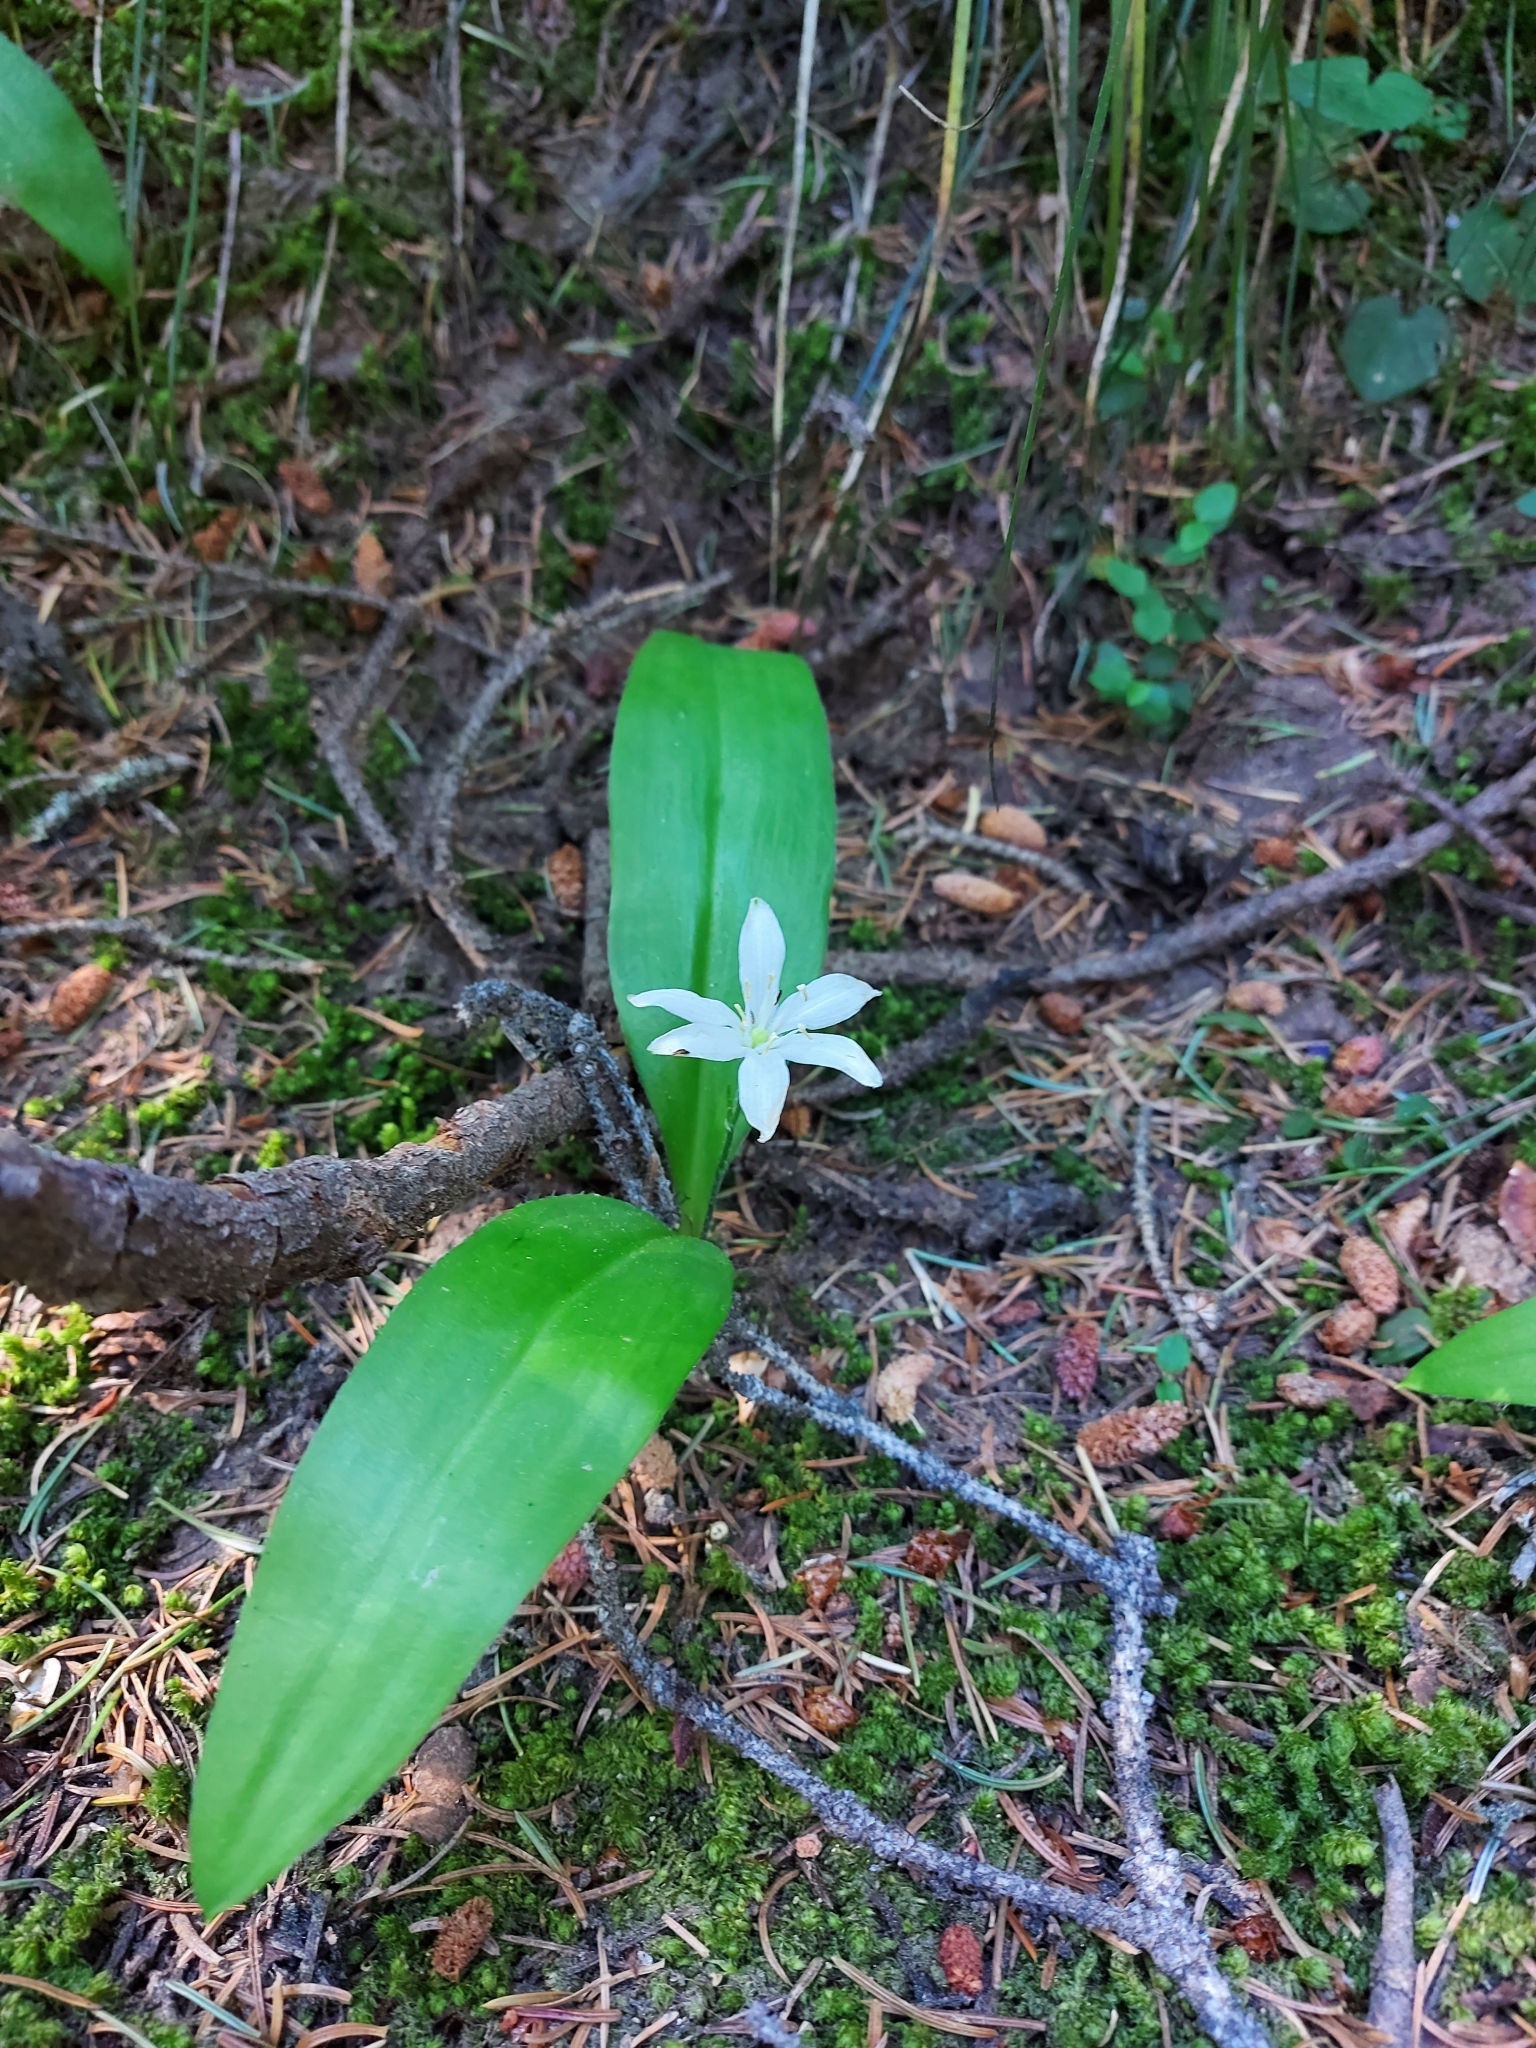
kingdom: Plantae
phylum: Tracheophyta
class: Liliopsida
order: Liliales
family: Liliaceae
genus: Clintonia
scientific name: Clintonia uniflora
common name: Queen's cup
